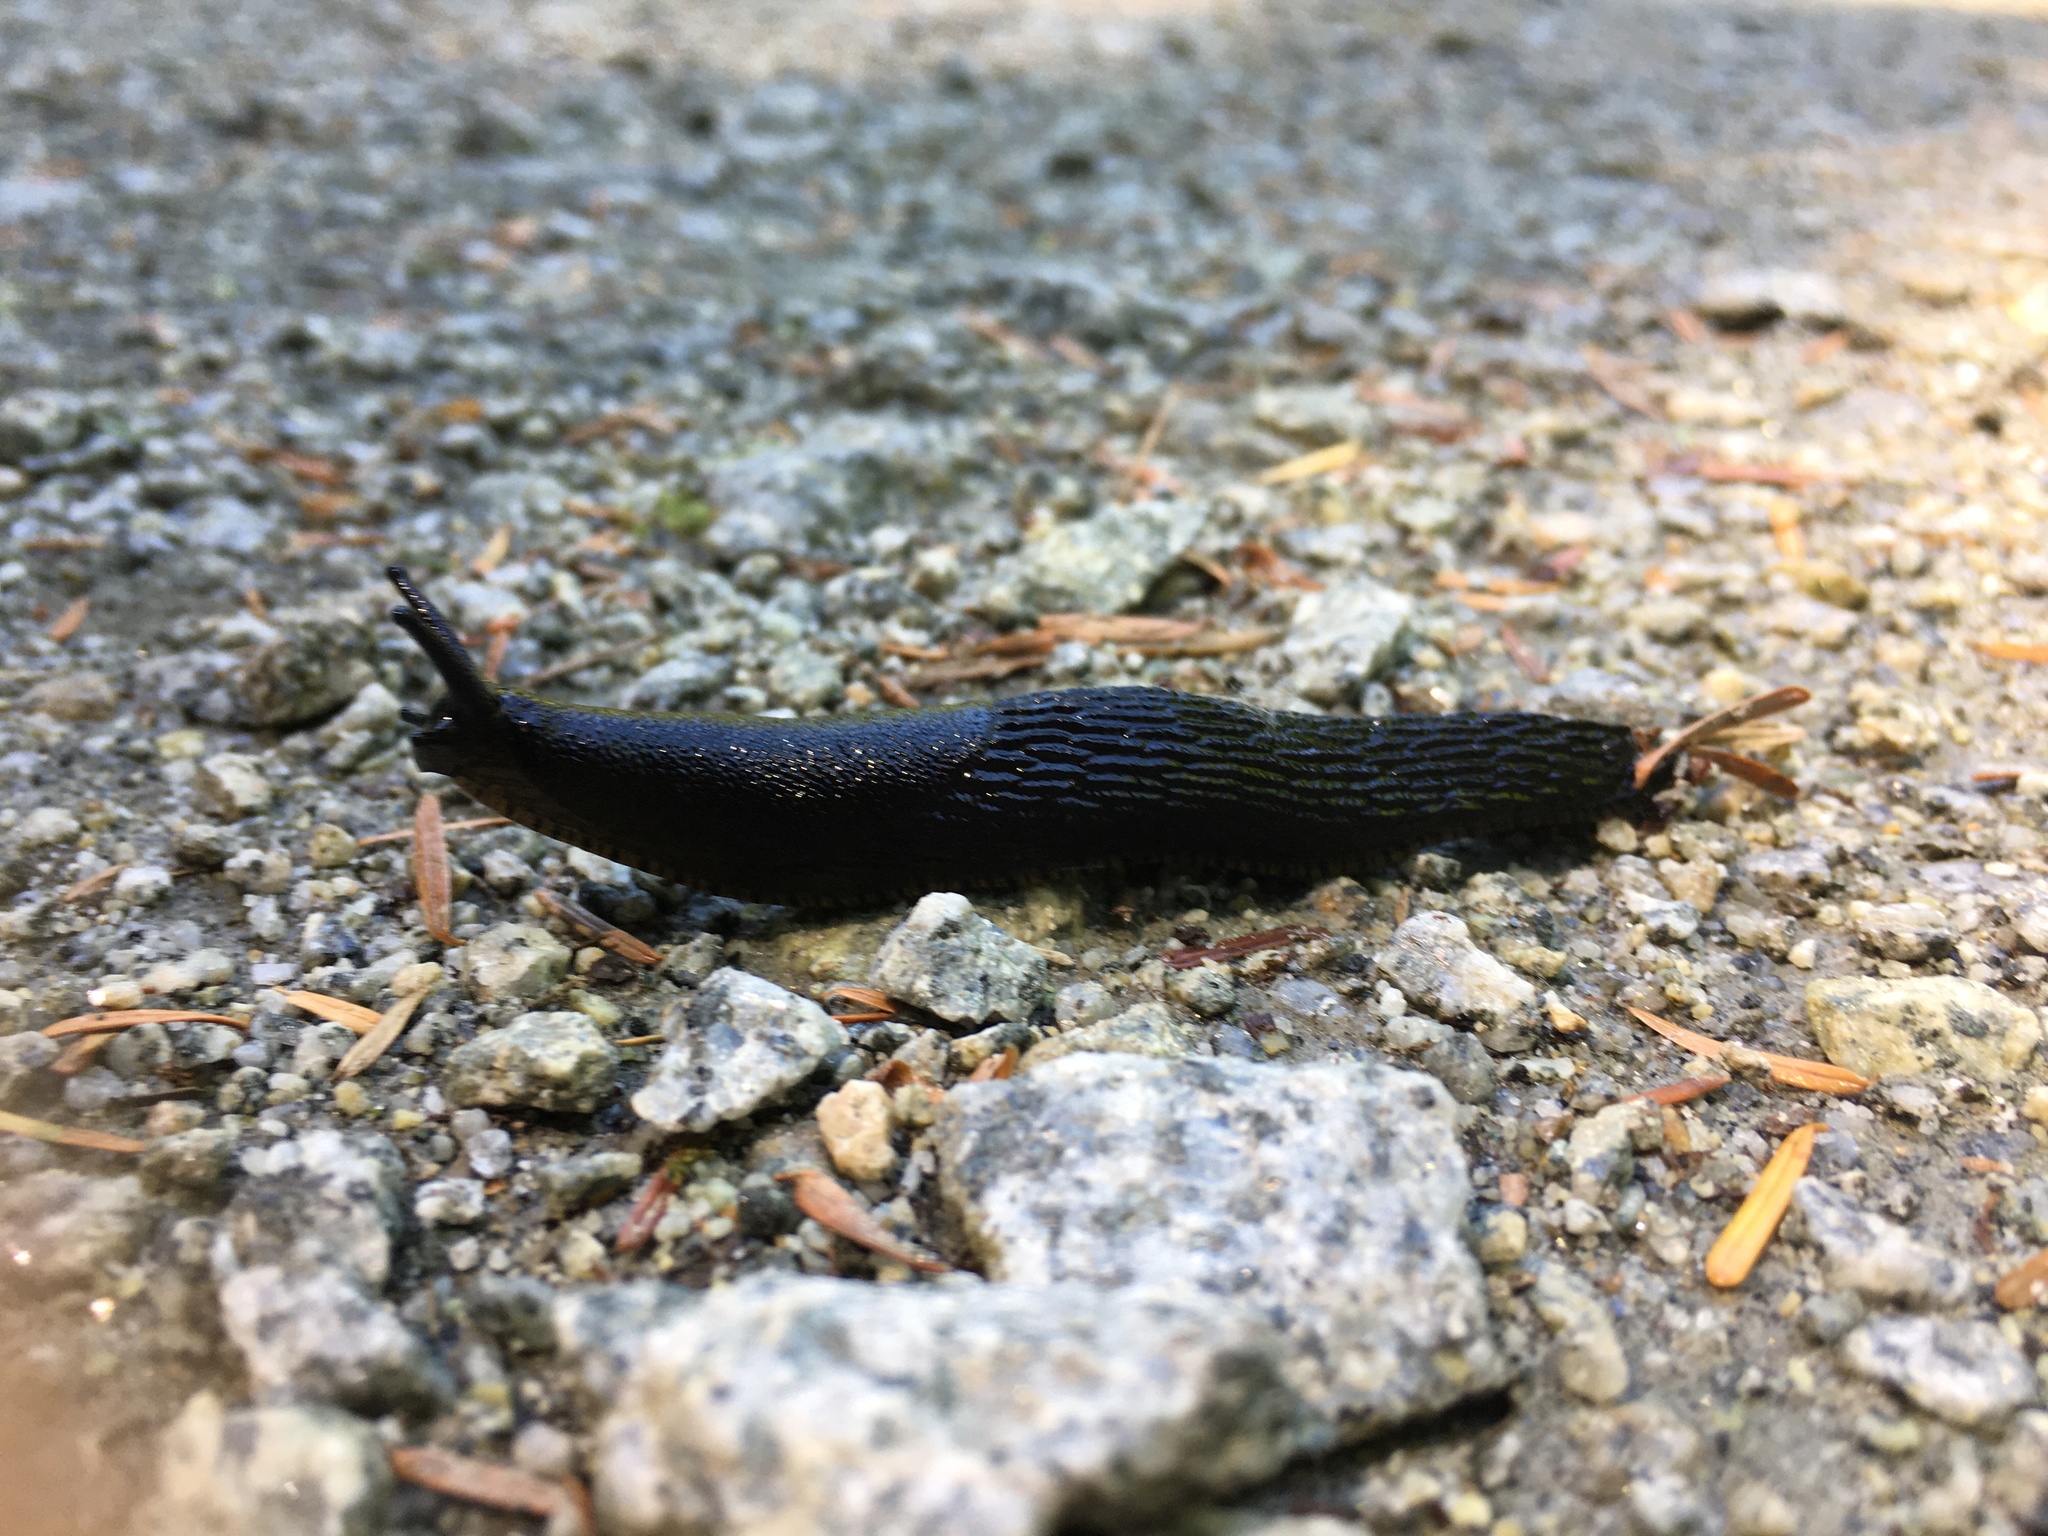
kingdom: Animalia
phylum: Mollusca
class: Gastropoda
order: Stylommatophora
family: Arionidae
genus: Arion
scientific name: Arion rufus
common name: Chocolate arion
